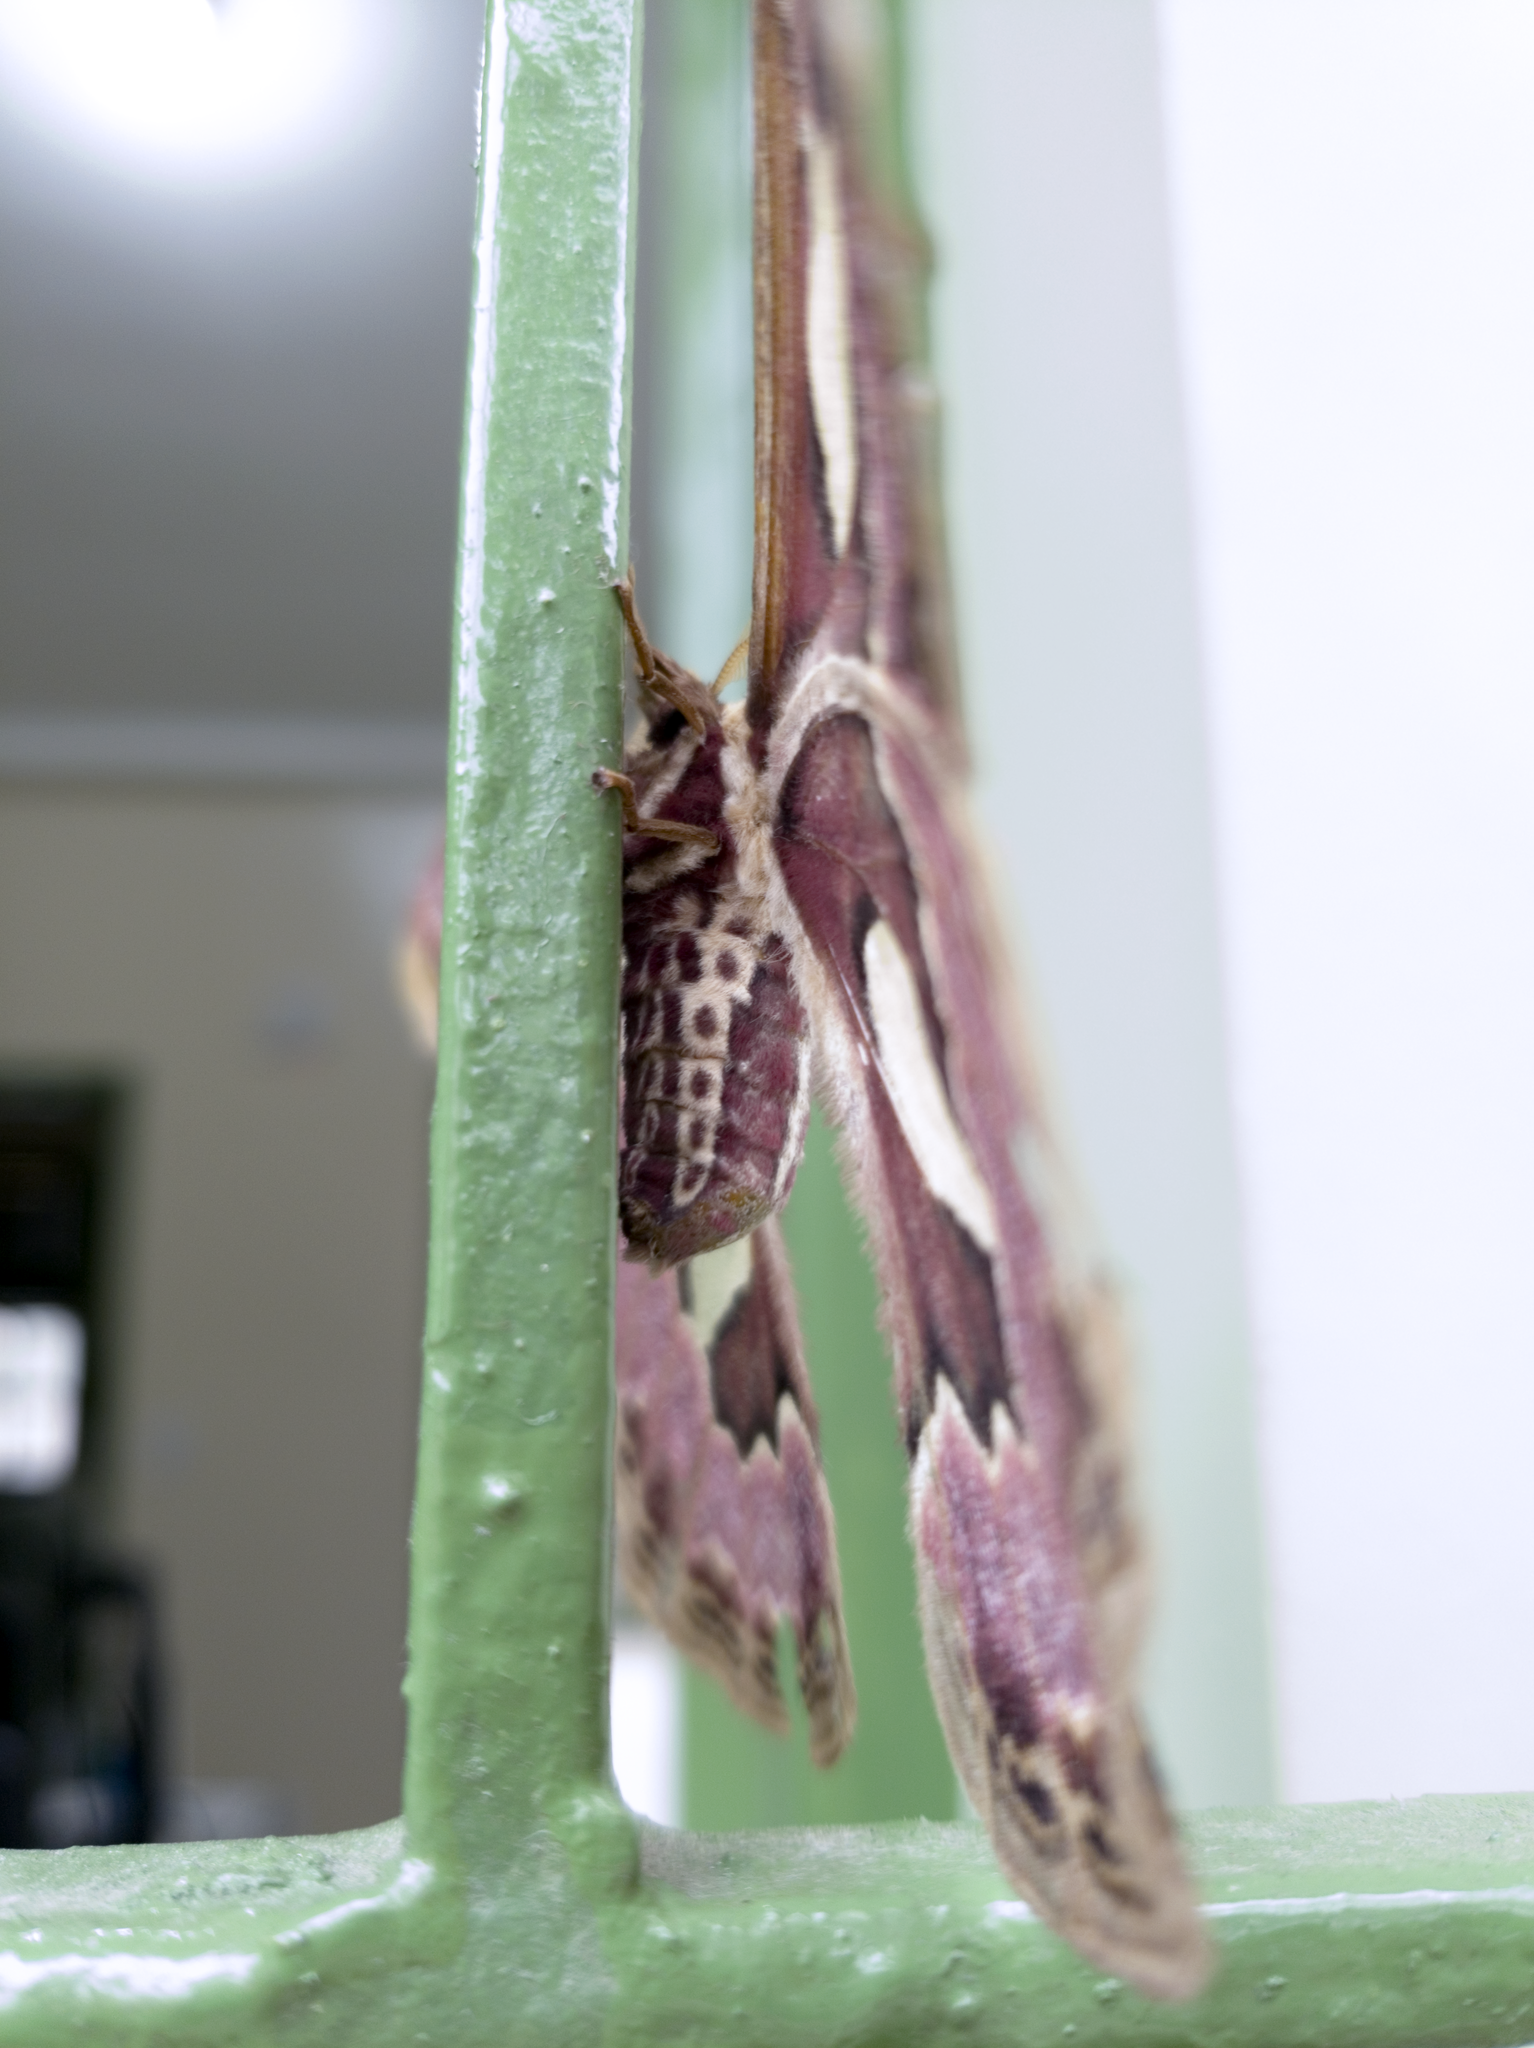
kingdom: Animalia
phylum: Arthropoda
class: Insecta
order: Lepidoptera
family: Saturniidae
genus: Rothschildia
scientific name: Rothschildia belus
